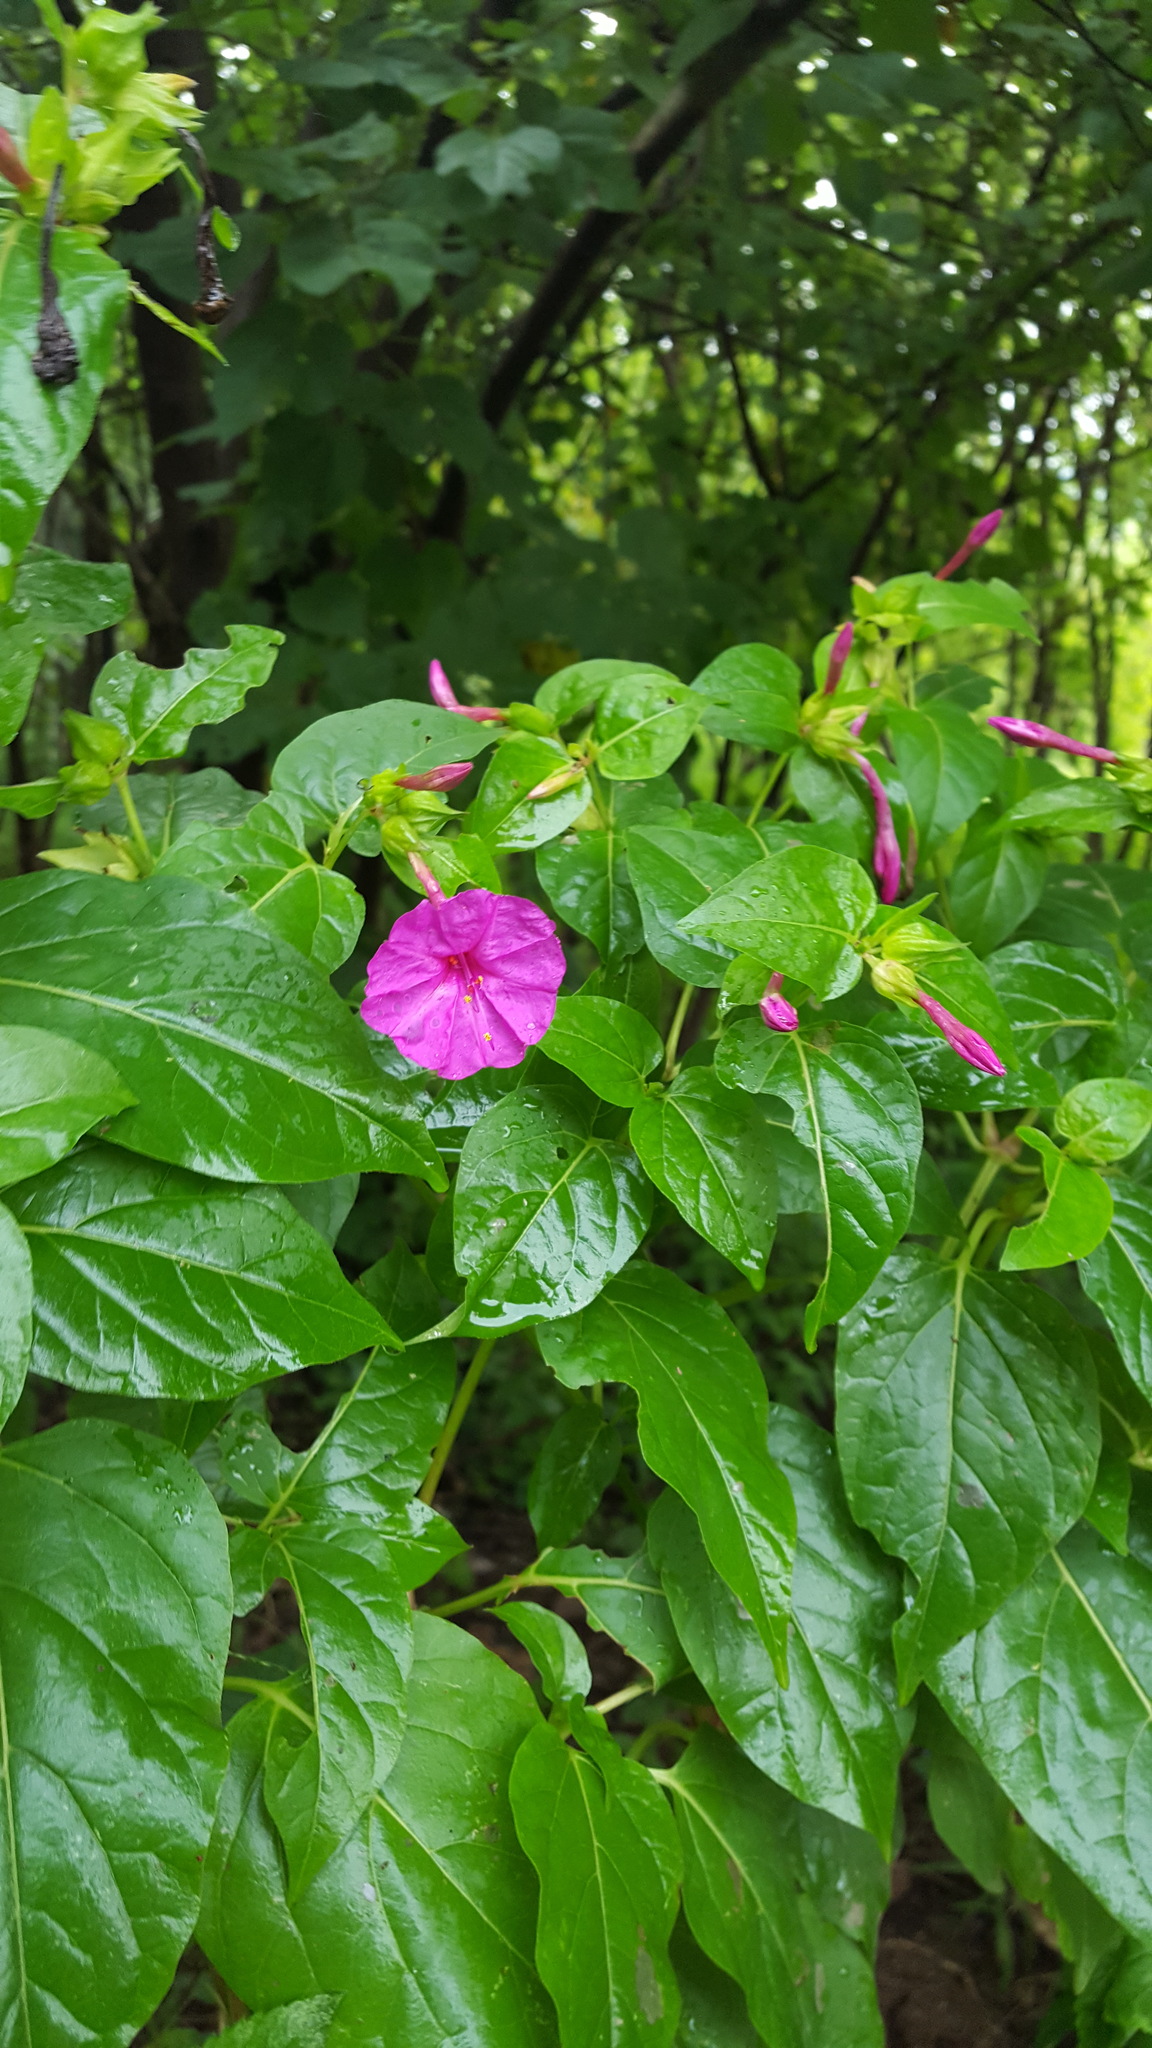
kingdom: Plantae
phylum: Tracheophyta
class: Magnoliopsida
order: Caryophyllales
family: Nyctaginaceae
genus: Mirabilis
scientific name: Mirabilis jalapa
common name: Marvel-of-peru
